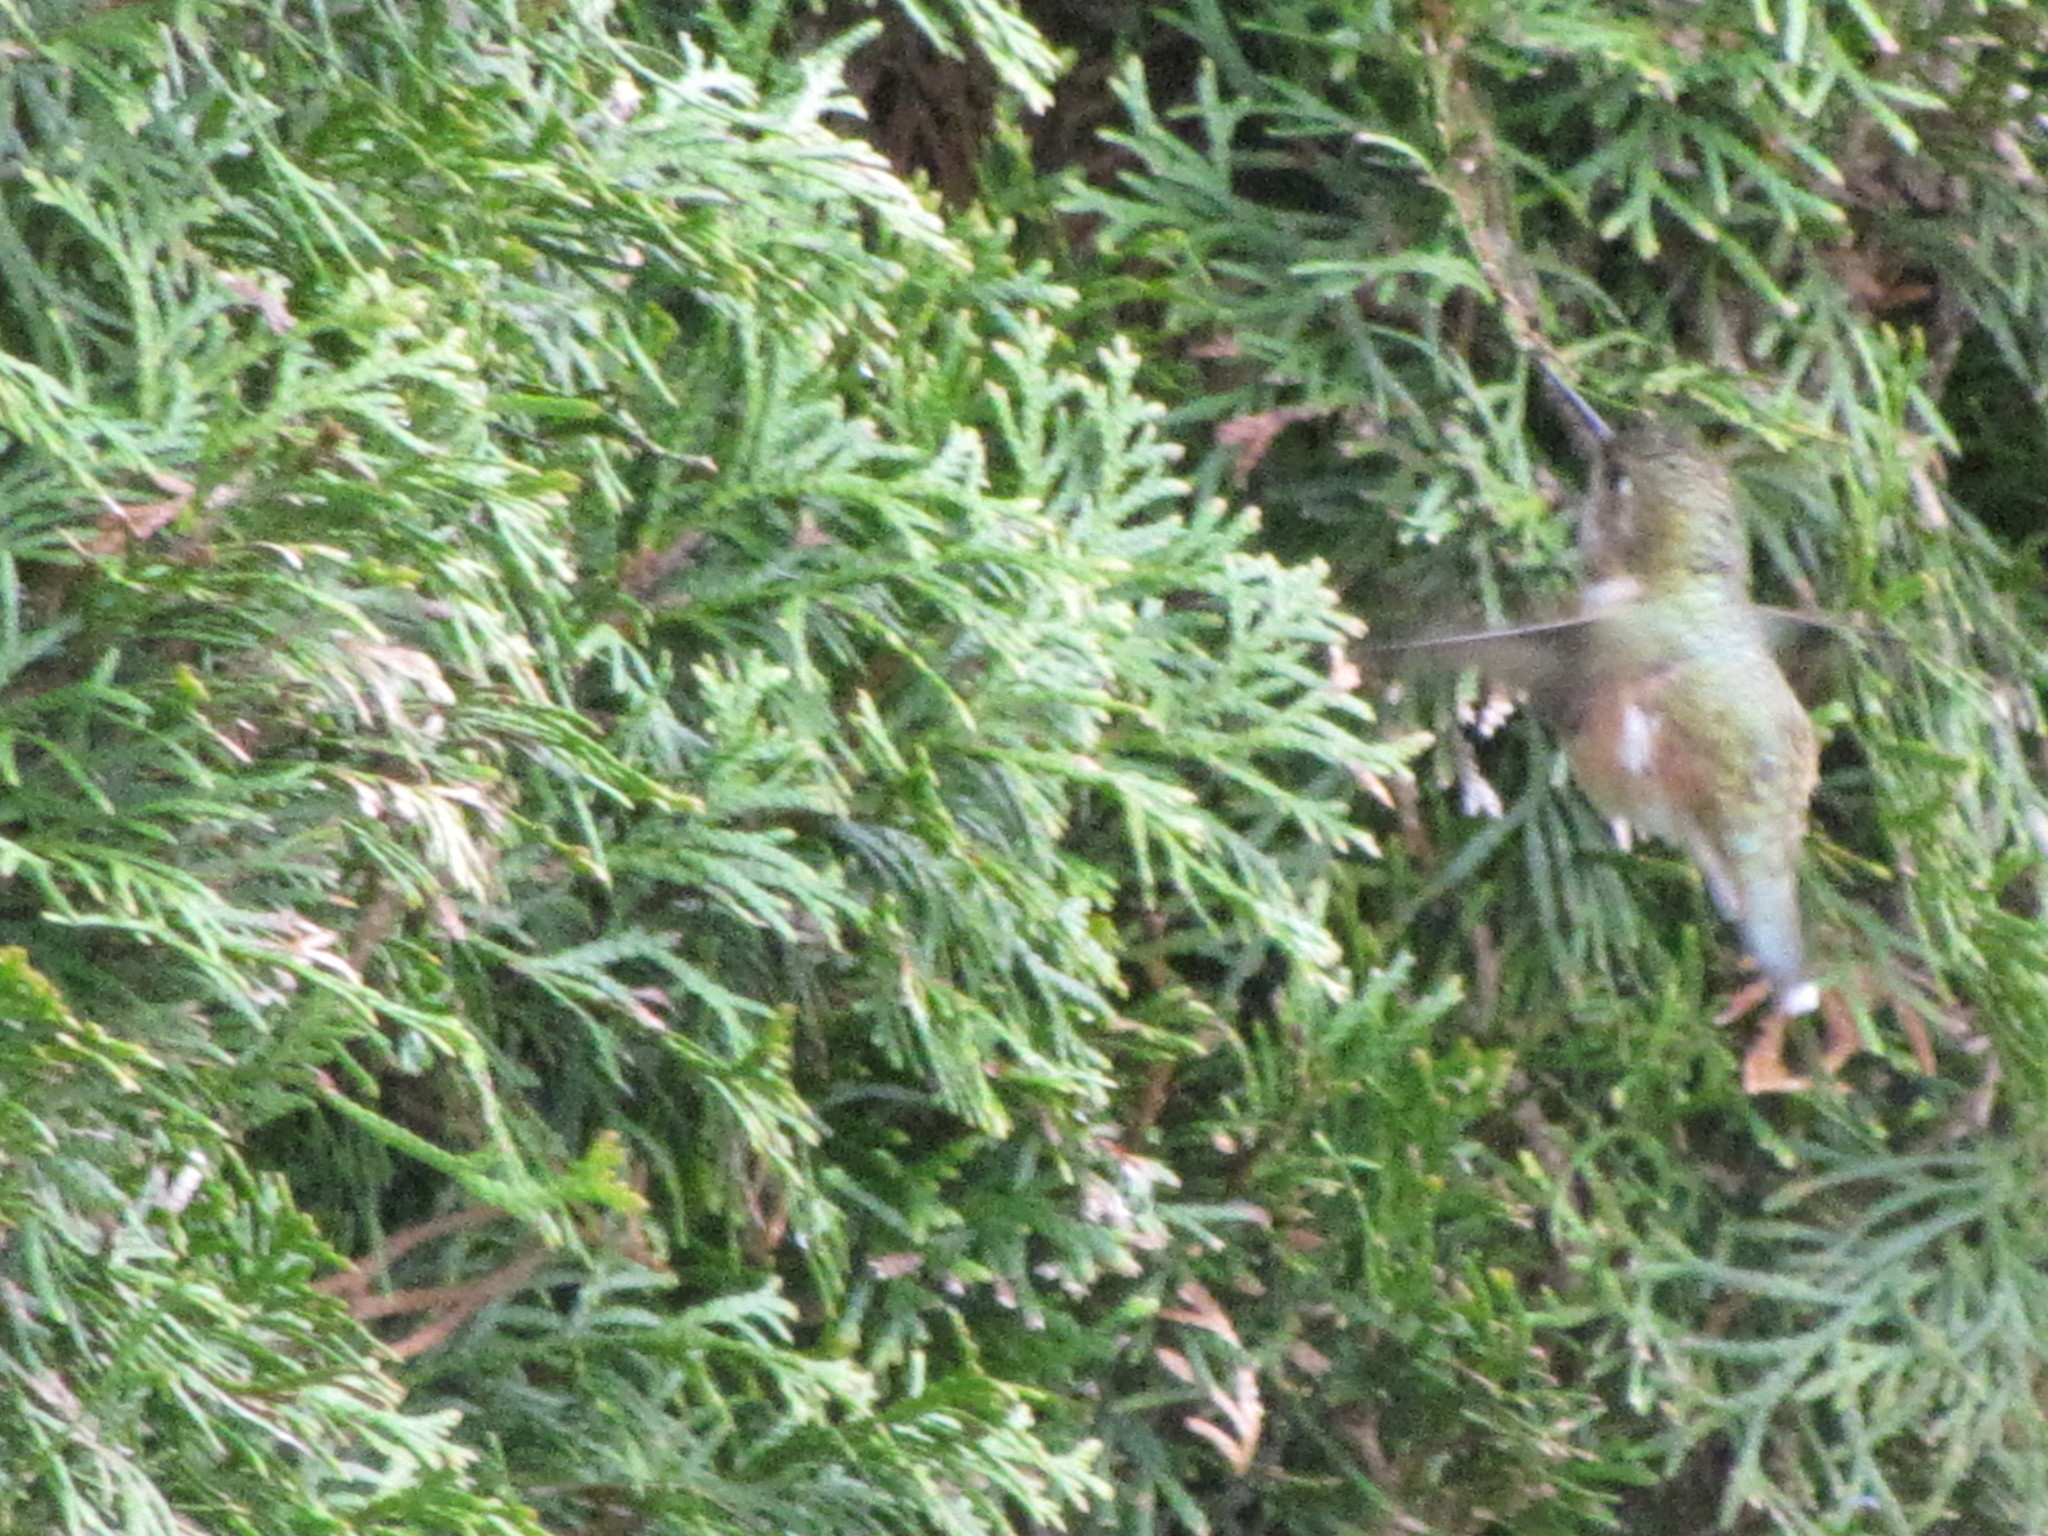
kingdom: Animalia
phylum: Chordata
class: Aves
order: Apodiformes
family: Trochilidae
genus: Selasphorus
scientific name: Selasphorus rufus
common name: Rufous hummingbird
